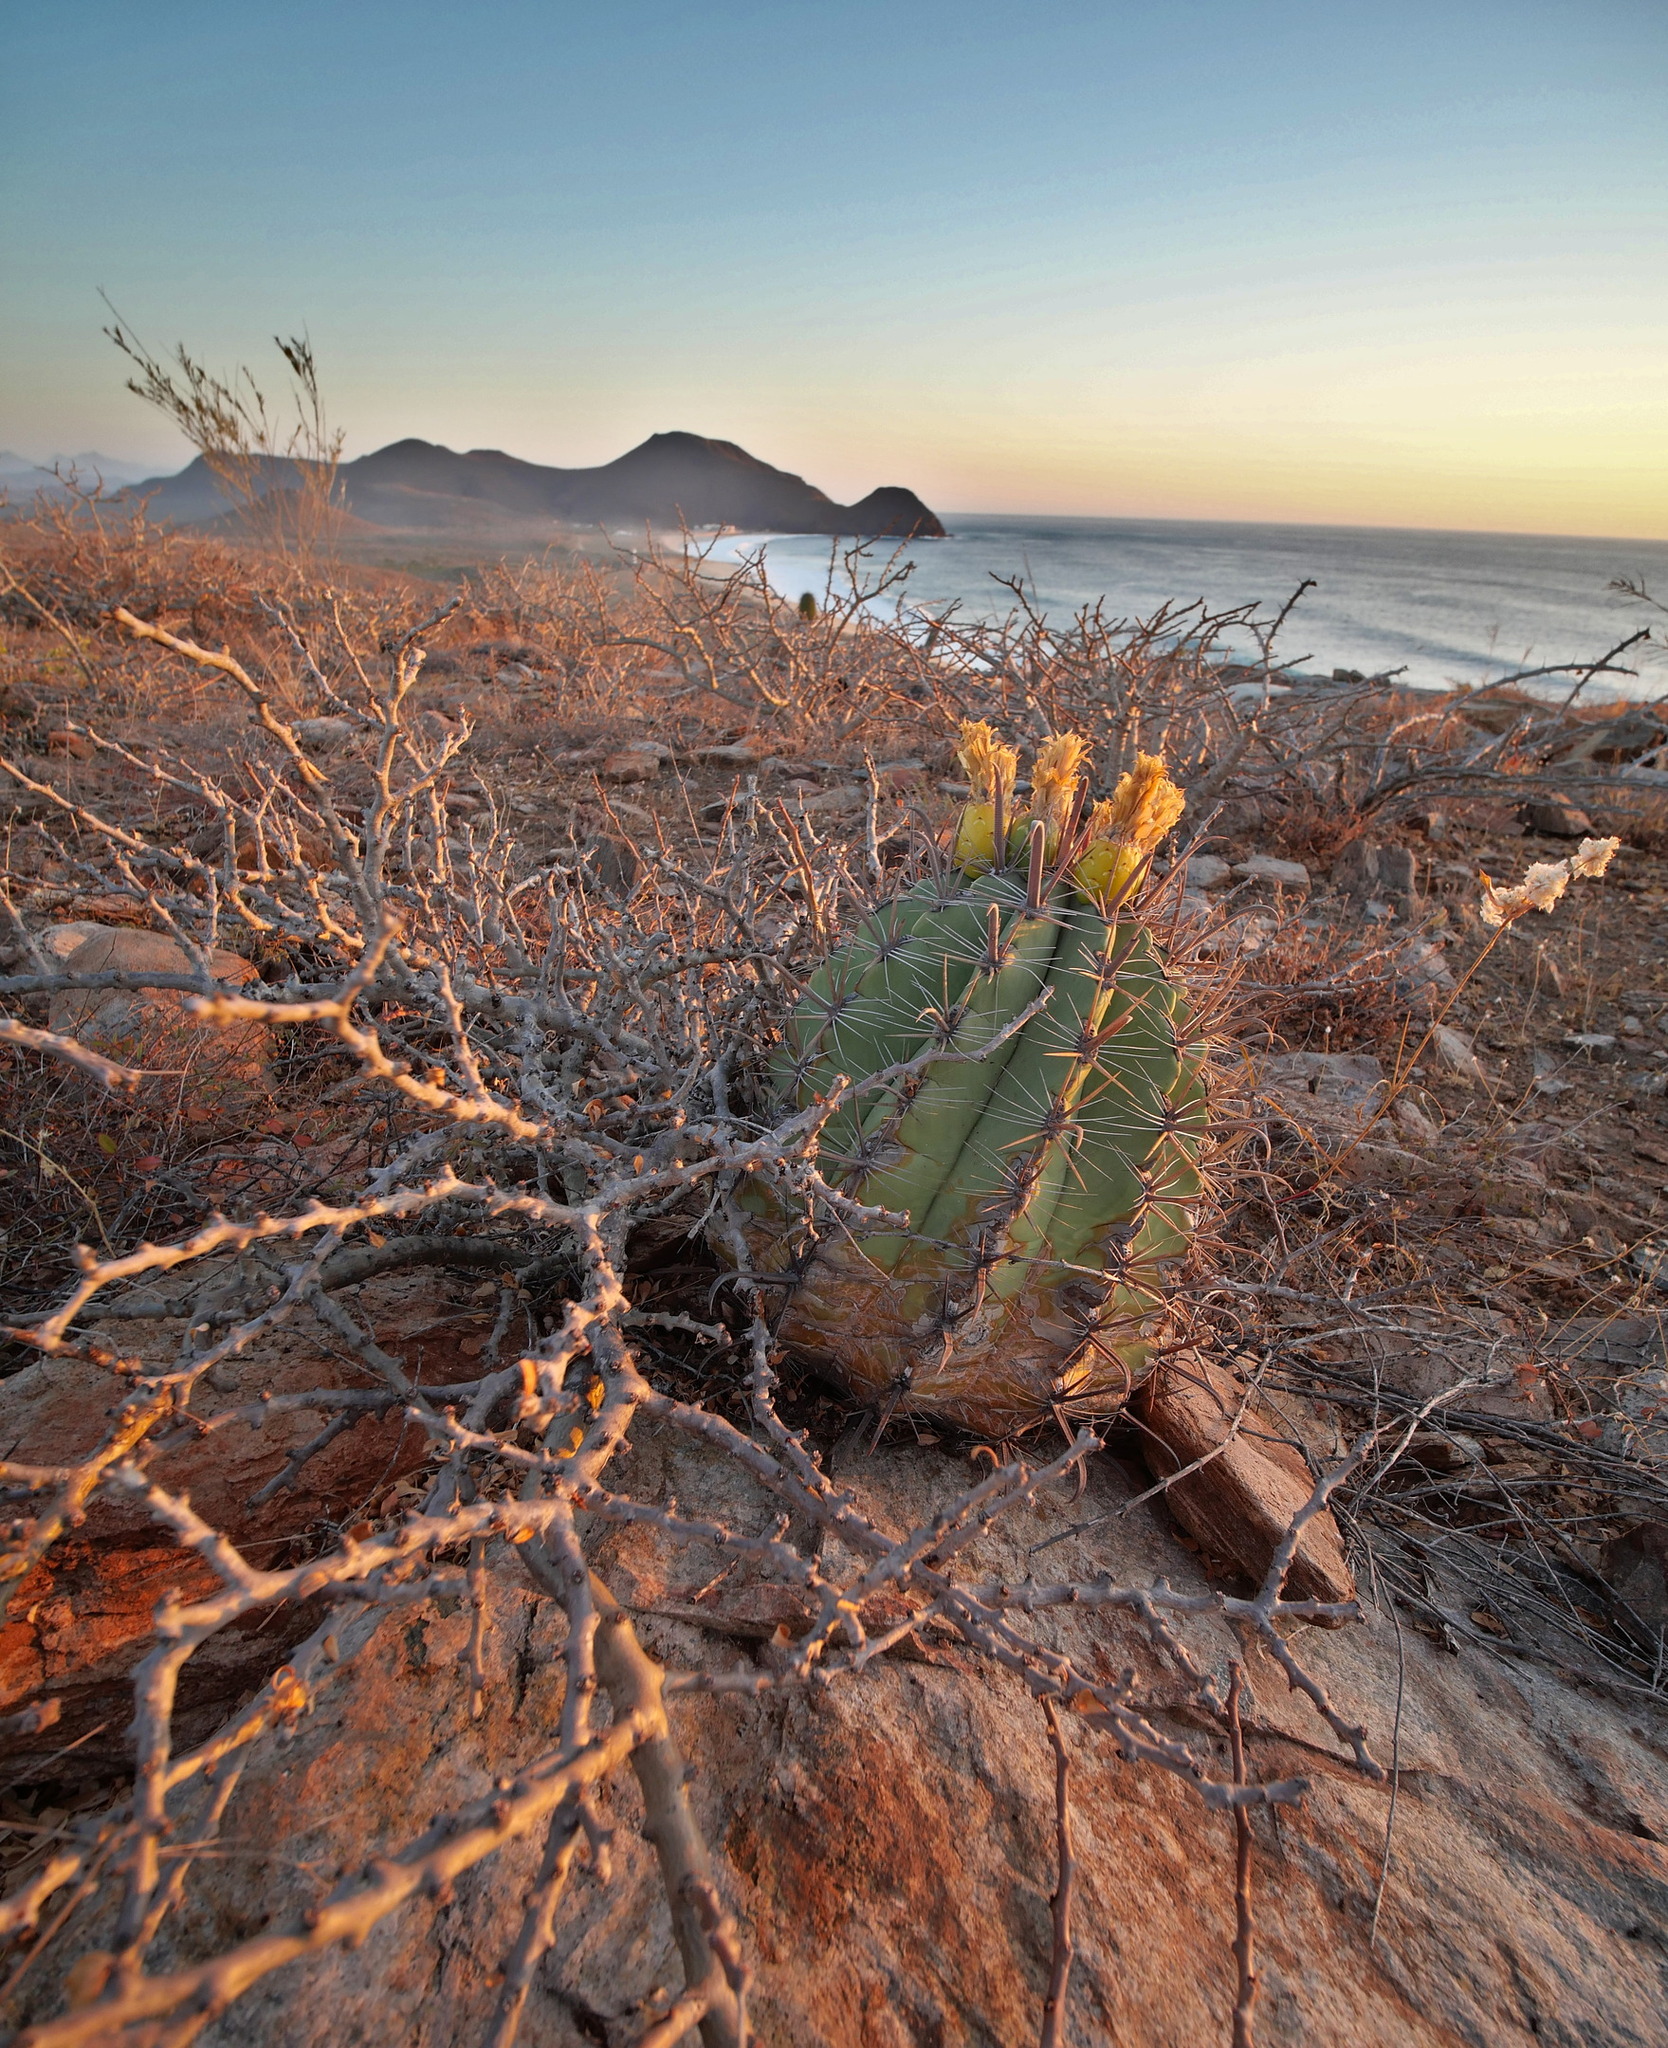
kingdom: Plantae
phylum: Tracheophyta
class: Magnoliopsida
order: Caryophyllales
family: Cactaceae
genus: Ferocactus
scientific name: Ferocactus townsendianus
